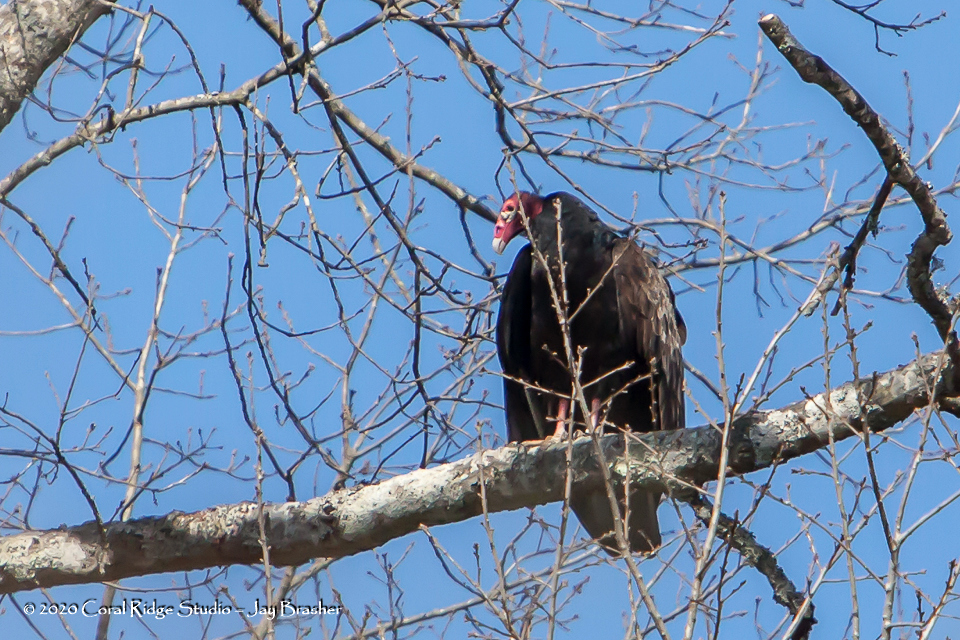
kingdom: Animalia
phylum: Chordata
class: Aves
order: Accipitriformes
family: Cathartidae
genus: Cathartes
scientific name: Cathartes aura
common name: Turkey vulture
